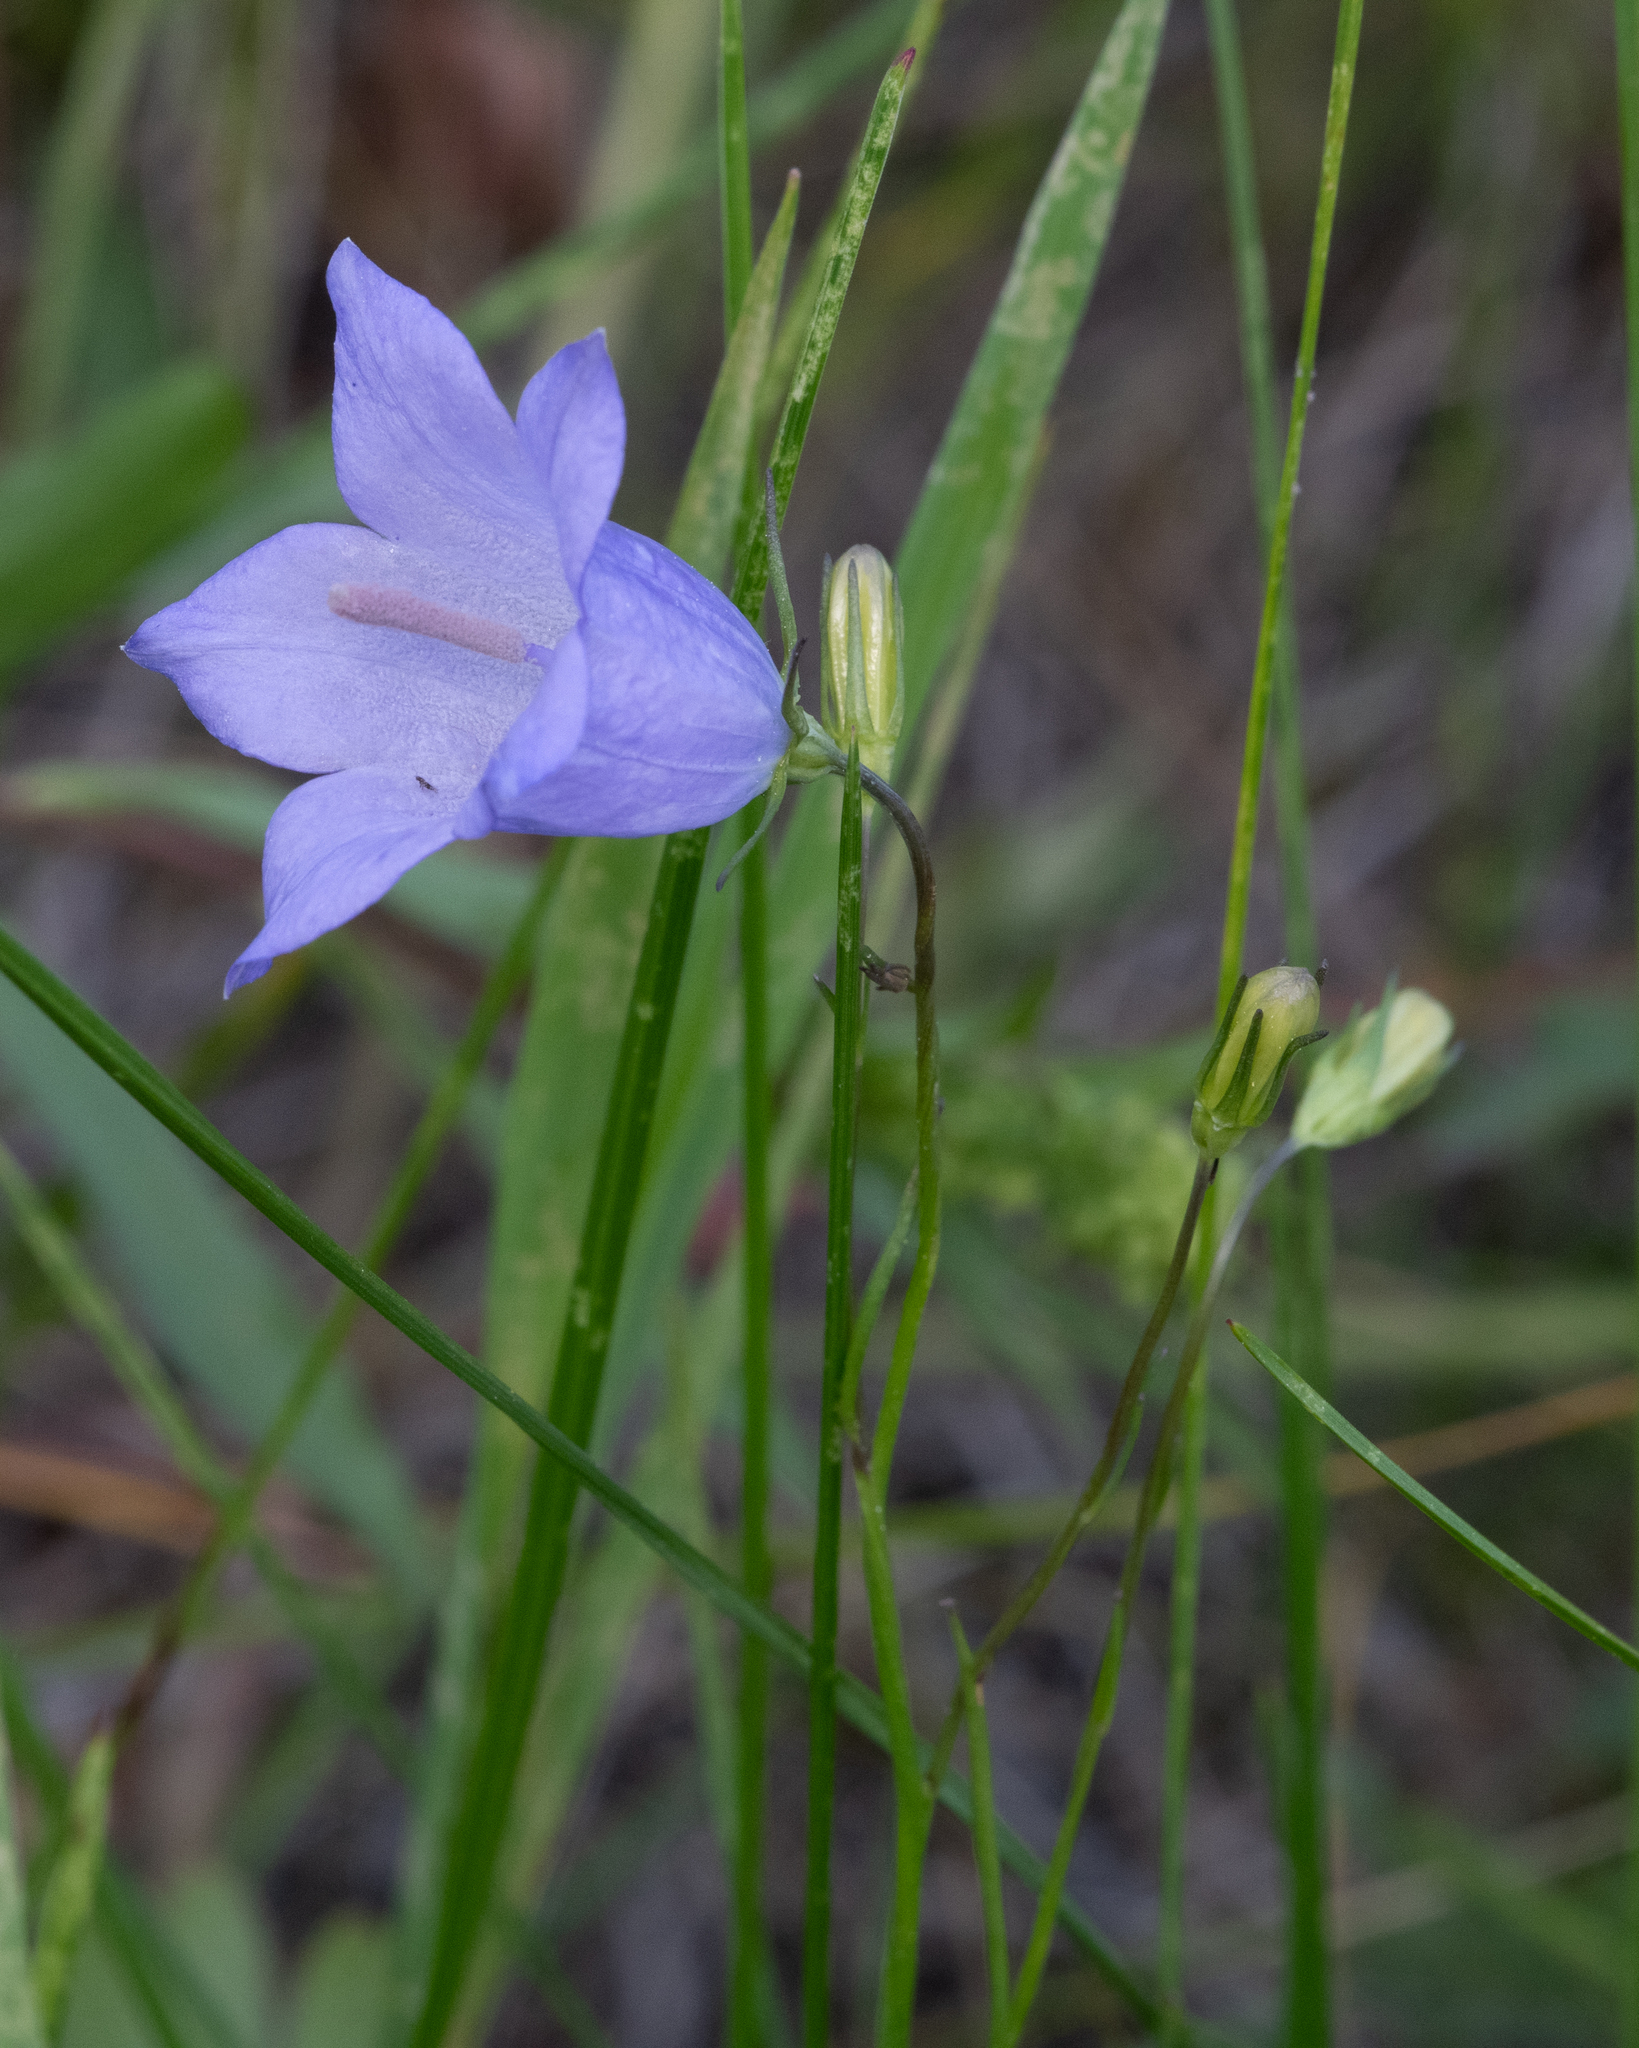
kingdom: Plantae
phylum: Tracheophyta
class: Magnoliopsida
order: Asterales
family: Campanulaceae
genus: Campanula
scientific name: Campanula
